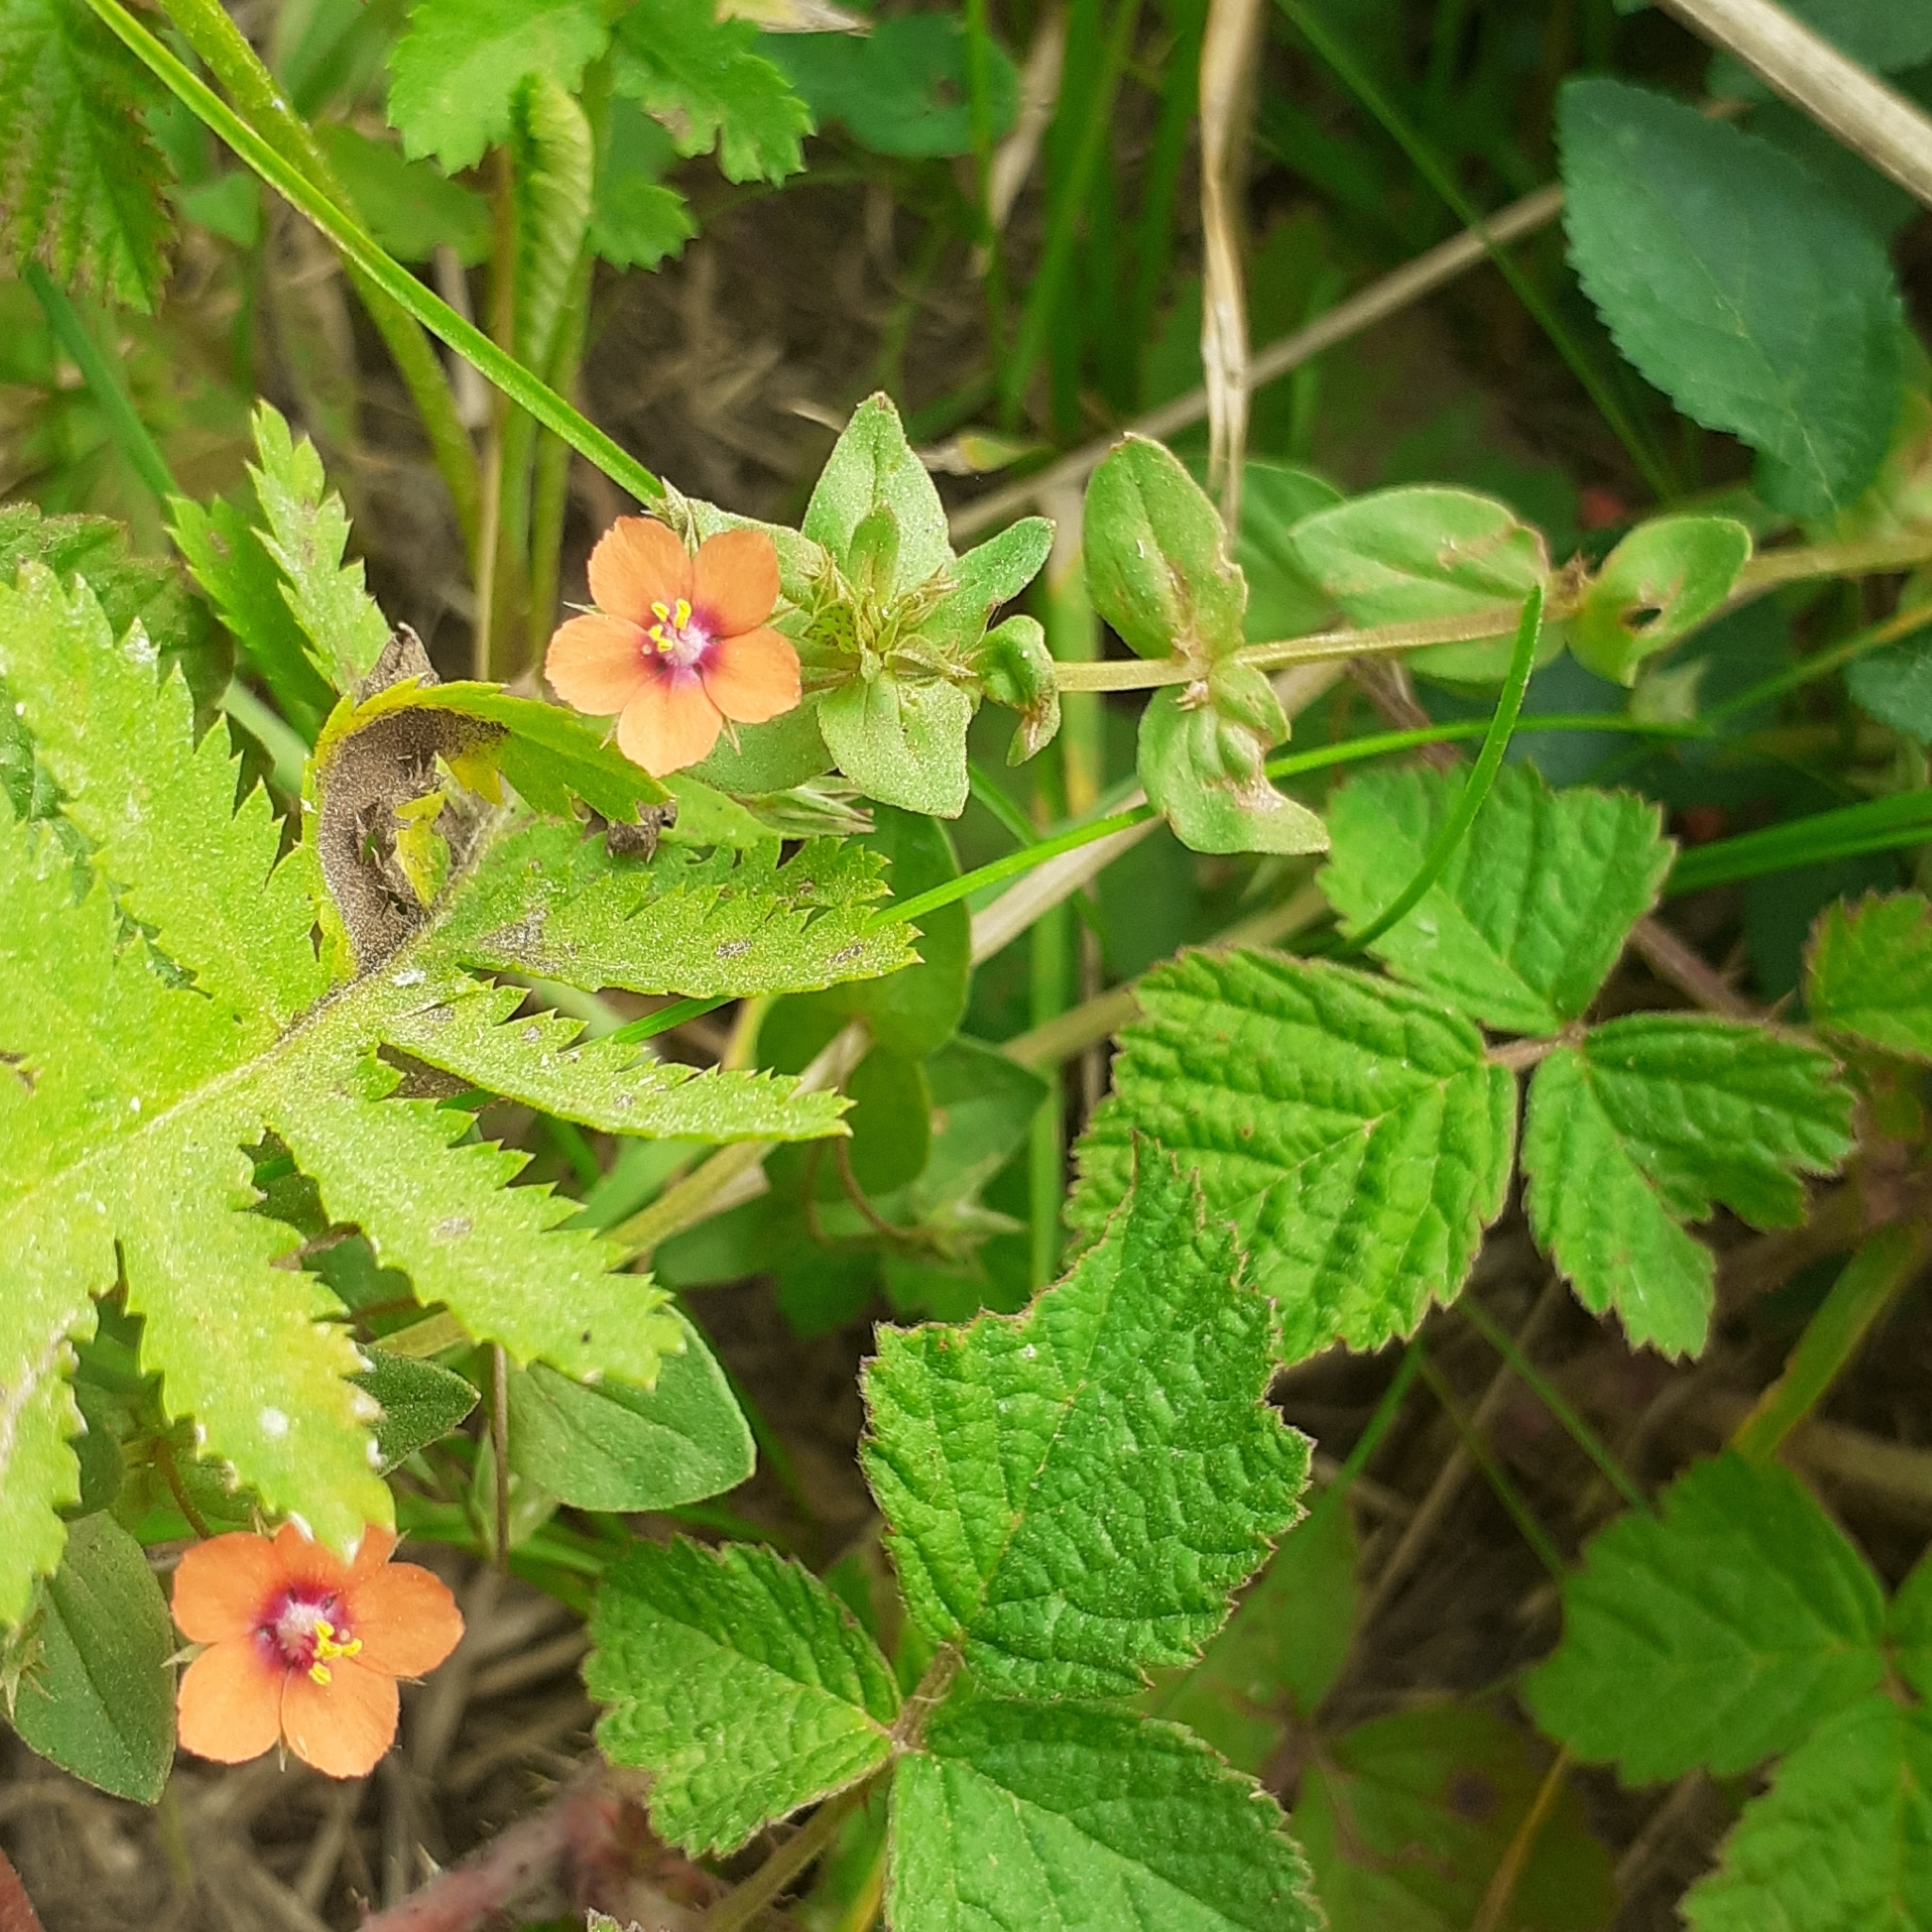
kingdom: Plantae
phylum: Tracheophyta
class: Magnoliopsida
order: Ericales
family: Primulaceae
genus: Lysimachia
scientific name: Lysimachia arvensis
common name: Scarlet pimpernel
